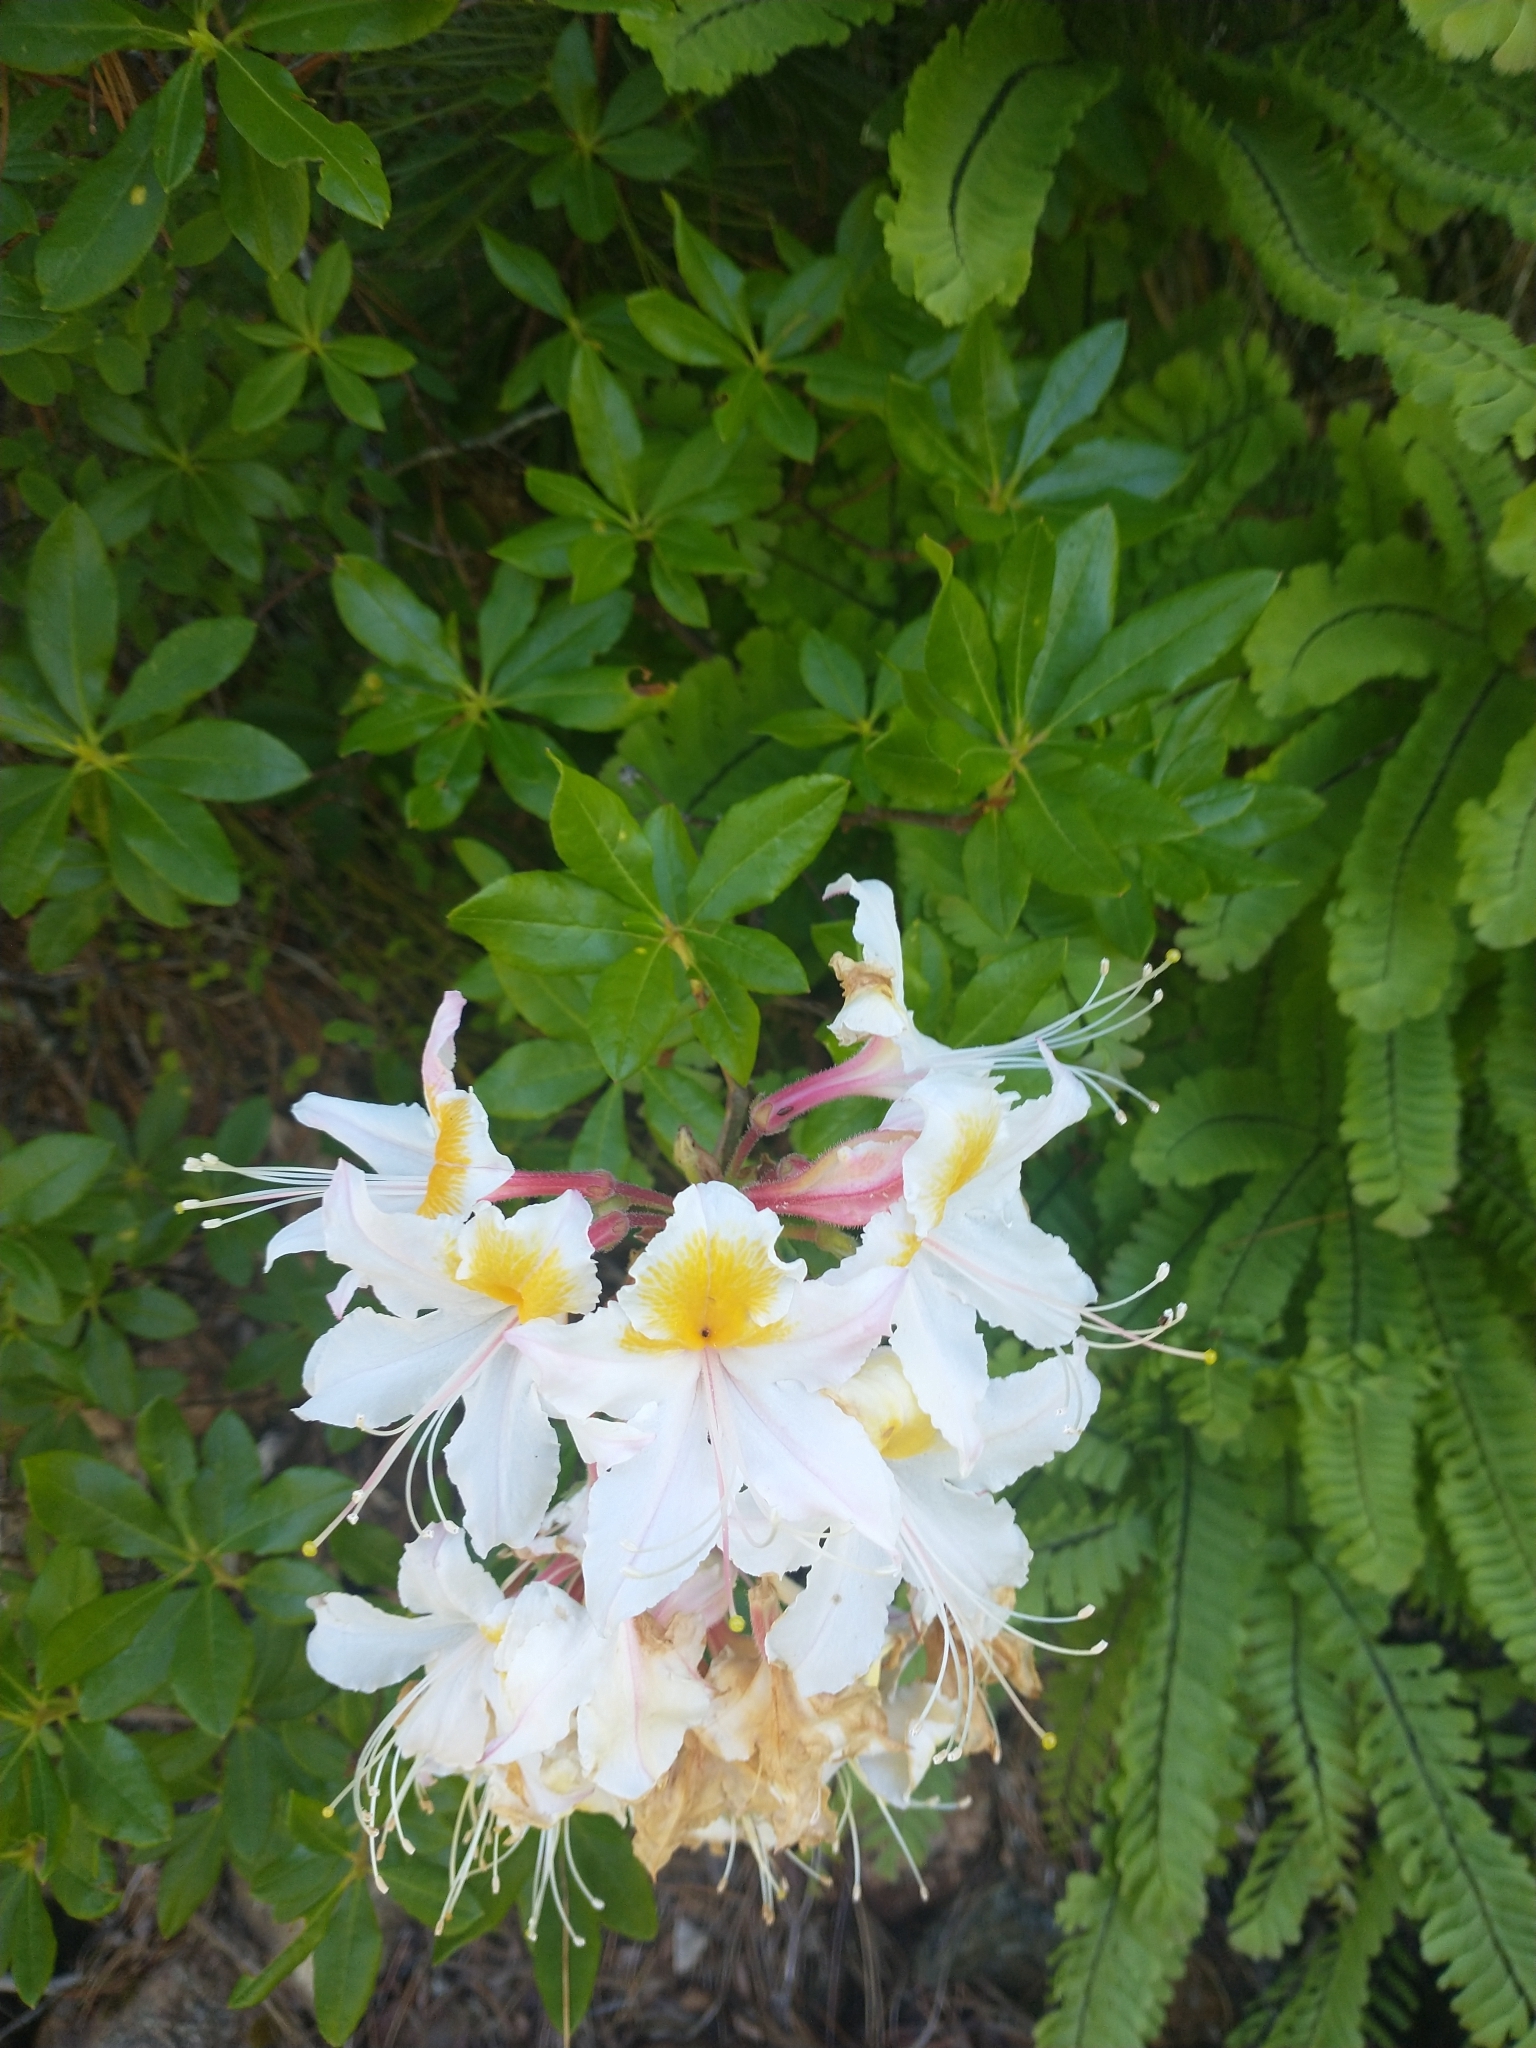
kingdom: Plantae
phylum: Tracheophyta
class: Magnoliopsida
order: Ericales
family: Ericaceae
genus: Rhododendron
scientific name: Rhododendron occidentale
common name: Western azalea
